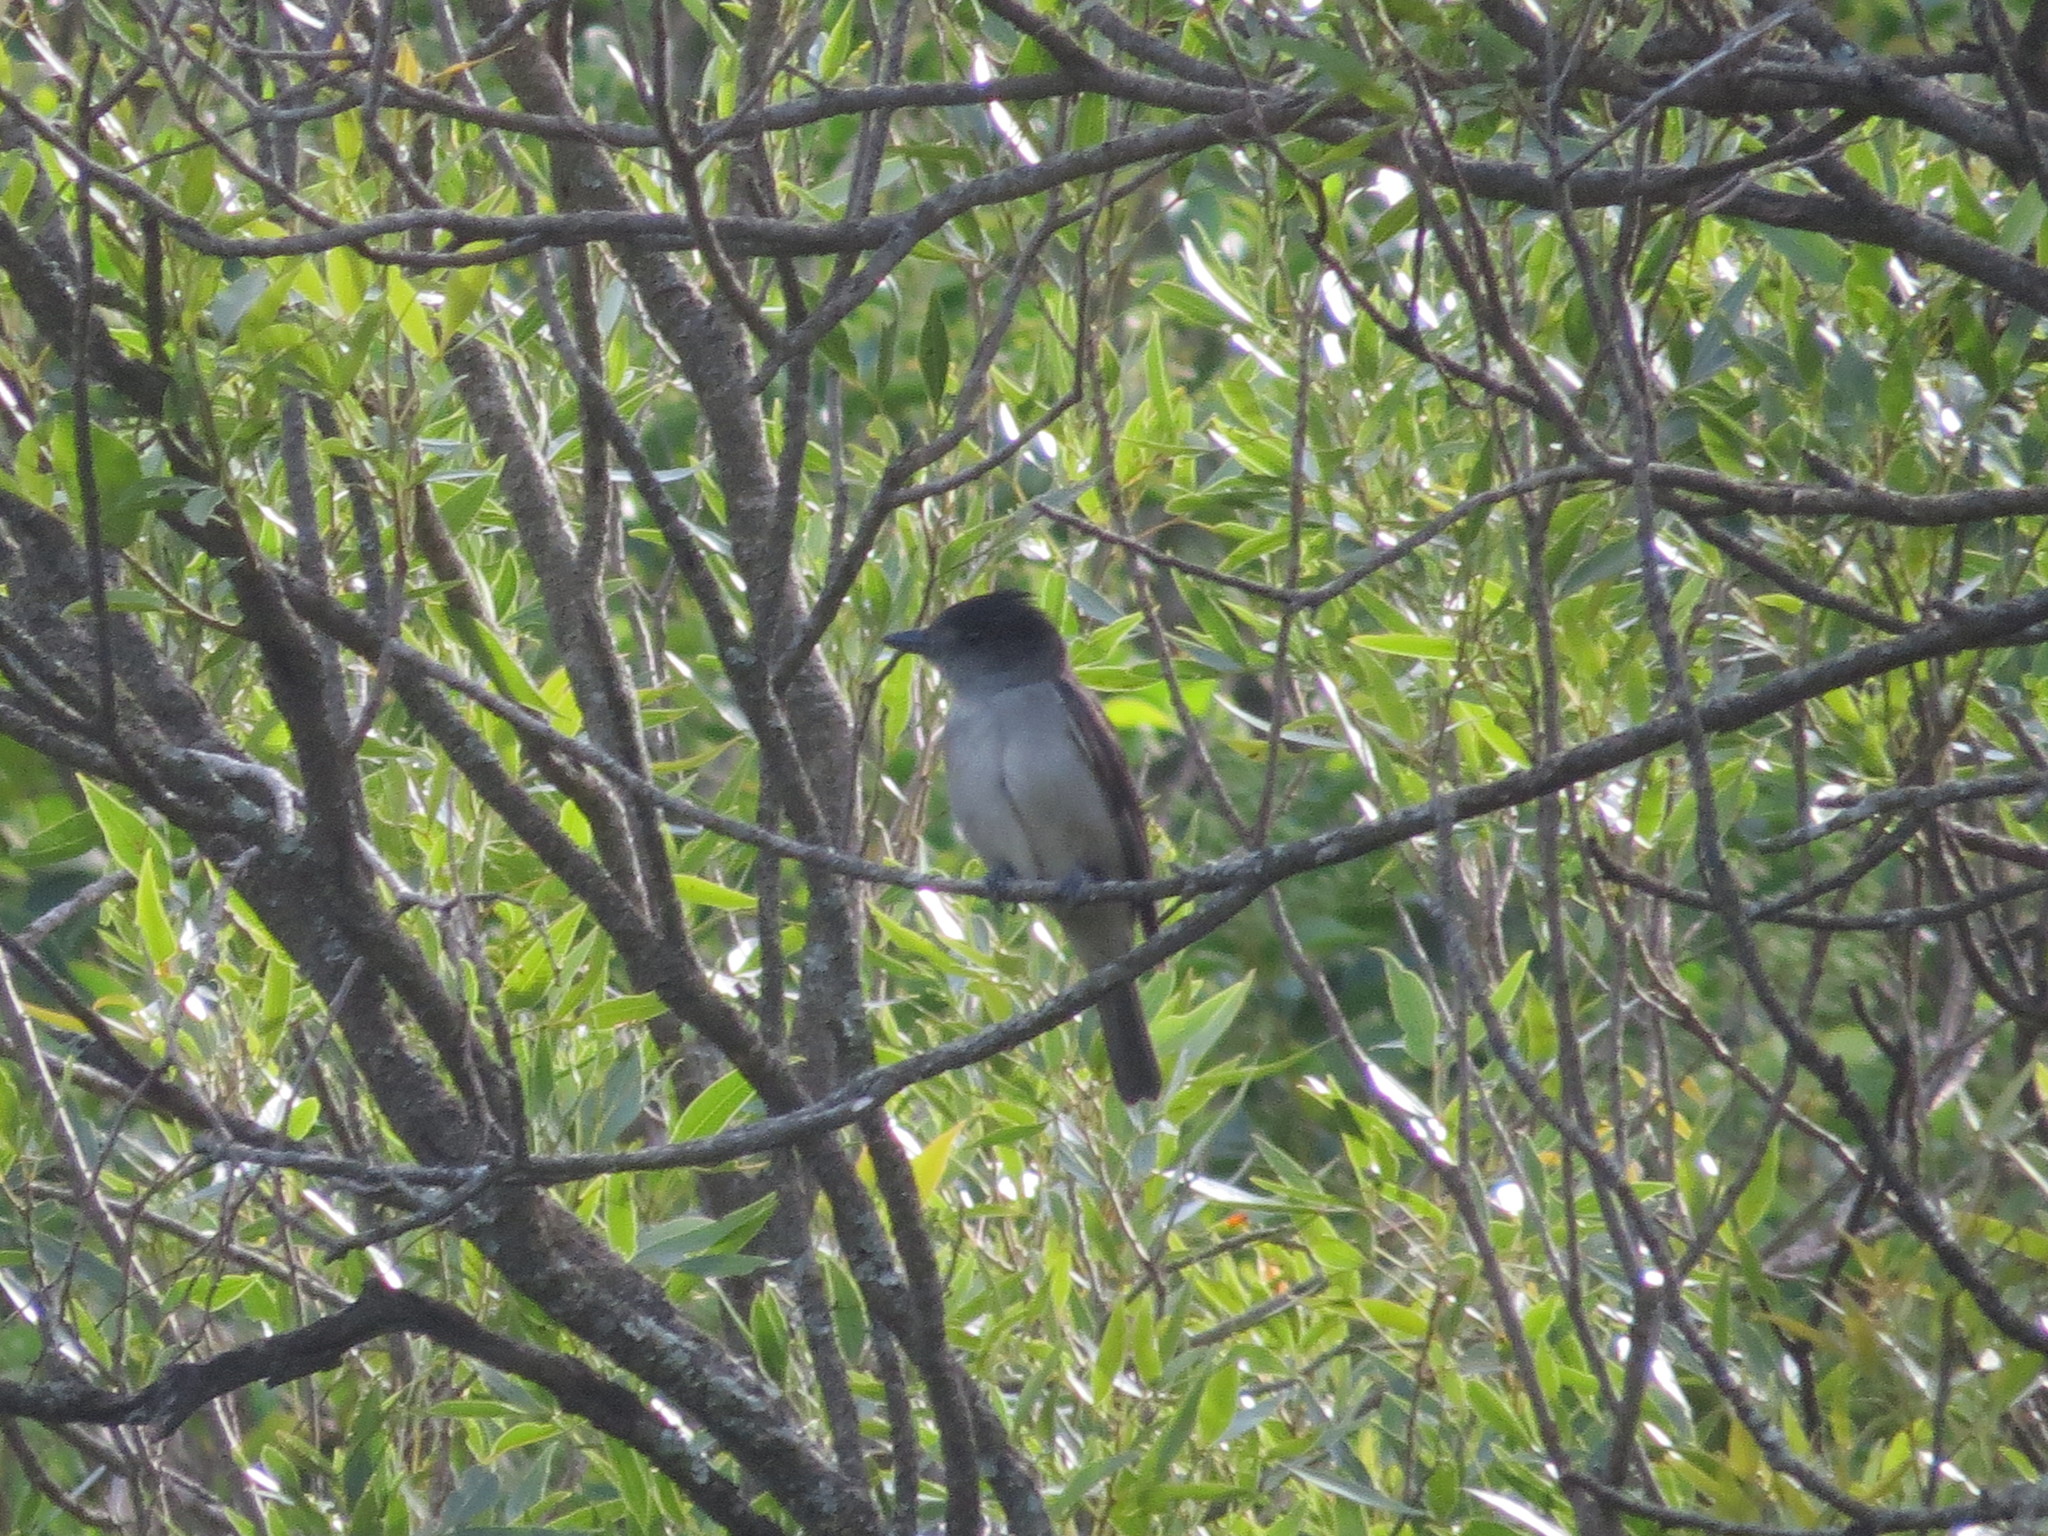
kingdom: Animalia
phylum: Chordata
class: Aves
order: Passeriformes
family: Cotingidae
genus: Pachyramphus
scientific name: Pachyramphus validus
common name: Crested becard
